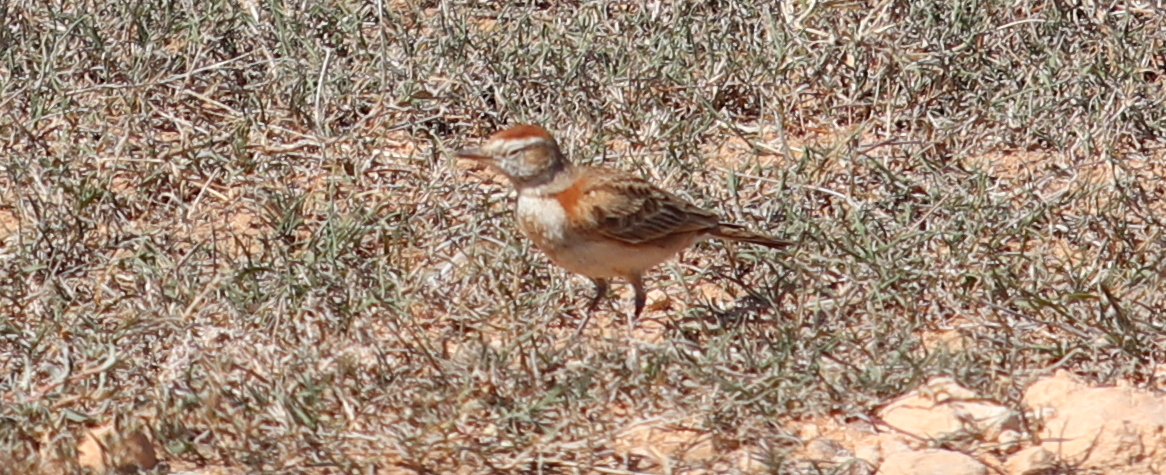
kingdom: Animalia
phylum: Chordata
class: Aves
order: Passeriformes
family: Alaudidae
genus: Calandrella
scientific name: Calandrella cinerea
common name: Red-capped lark
